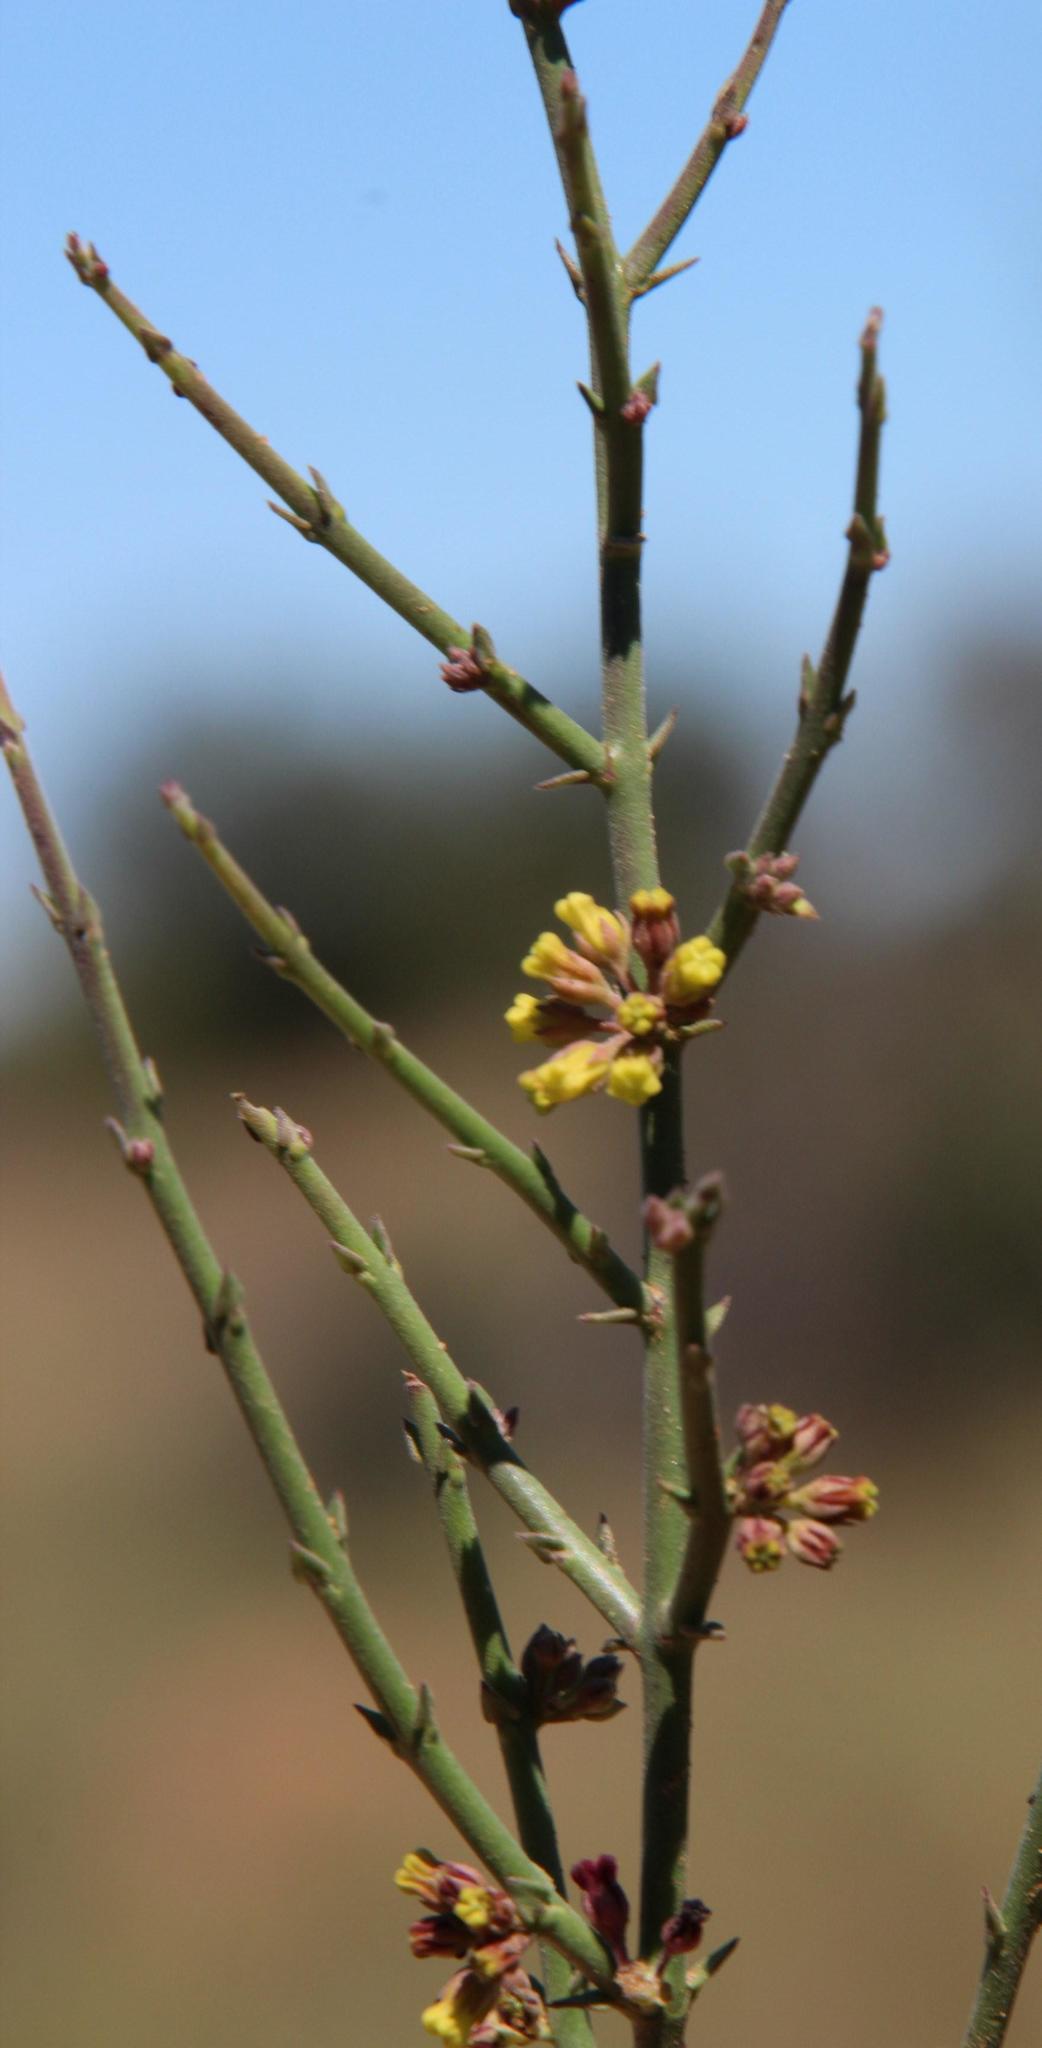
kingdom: Plantae
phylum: Tracheophyta
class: Magnoliopsida
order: Gentianales
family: Apocynaceae
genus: Microloma
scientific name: Microloma armatum
